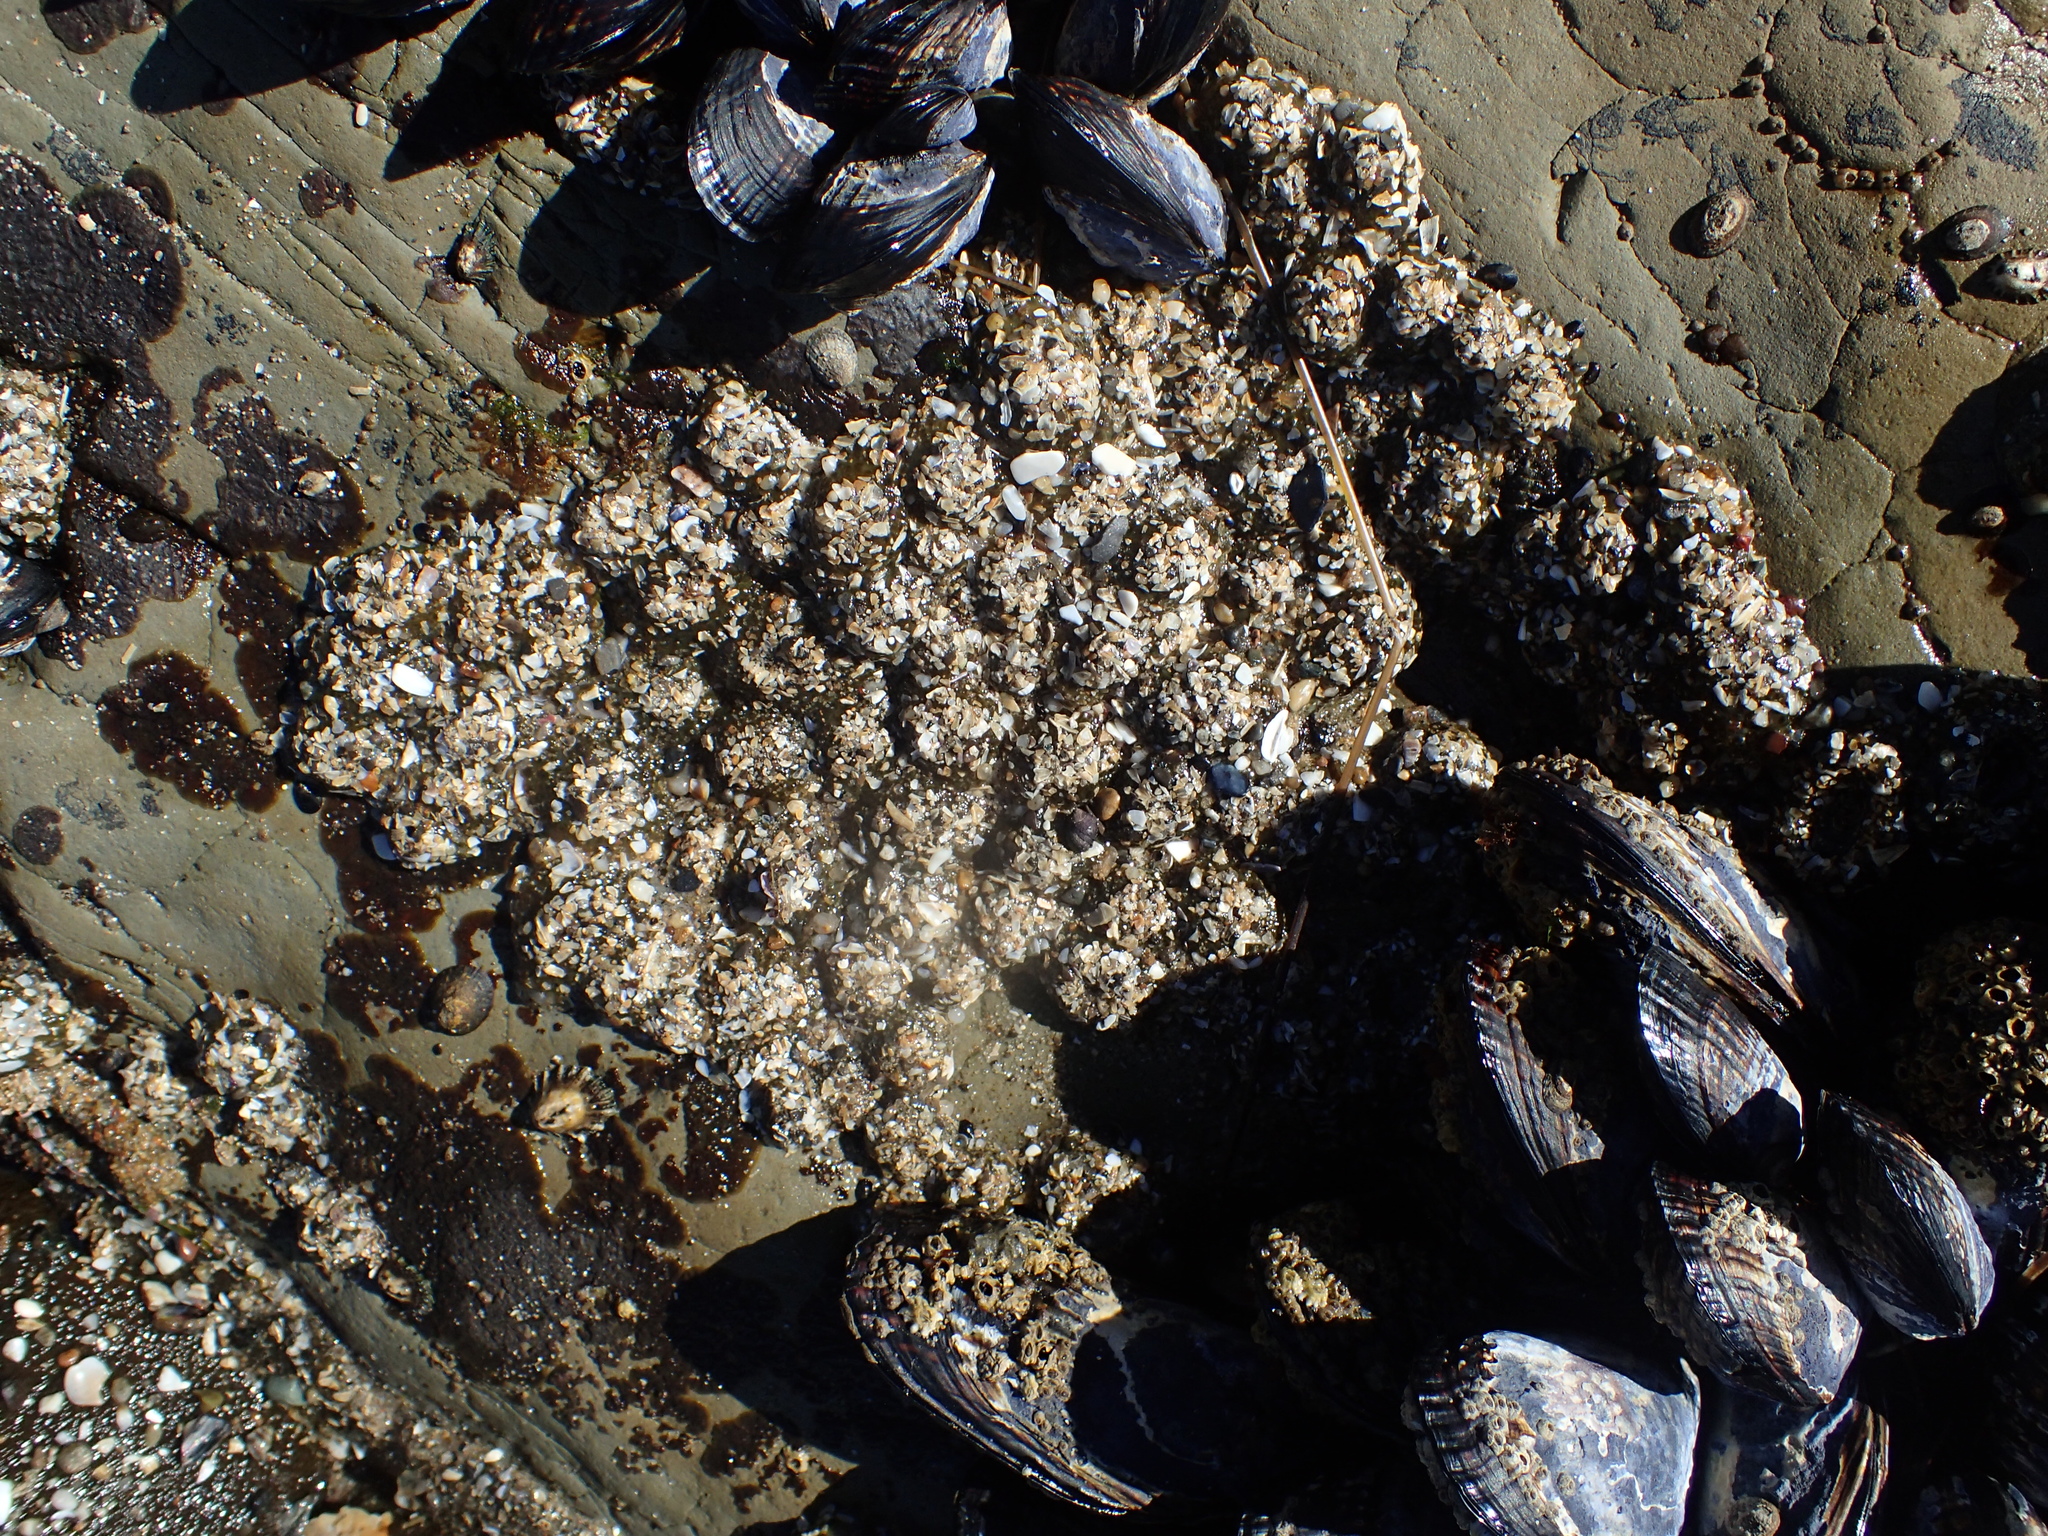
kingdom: Animalia
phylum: Cnidaria
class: Anthozoa
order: Actiniaria
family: Actiniidae
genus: Anthopleura
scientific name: Anthopleura elegantissima
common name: Clonal anemone
